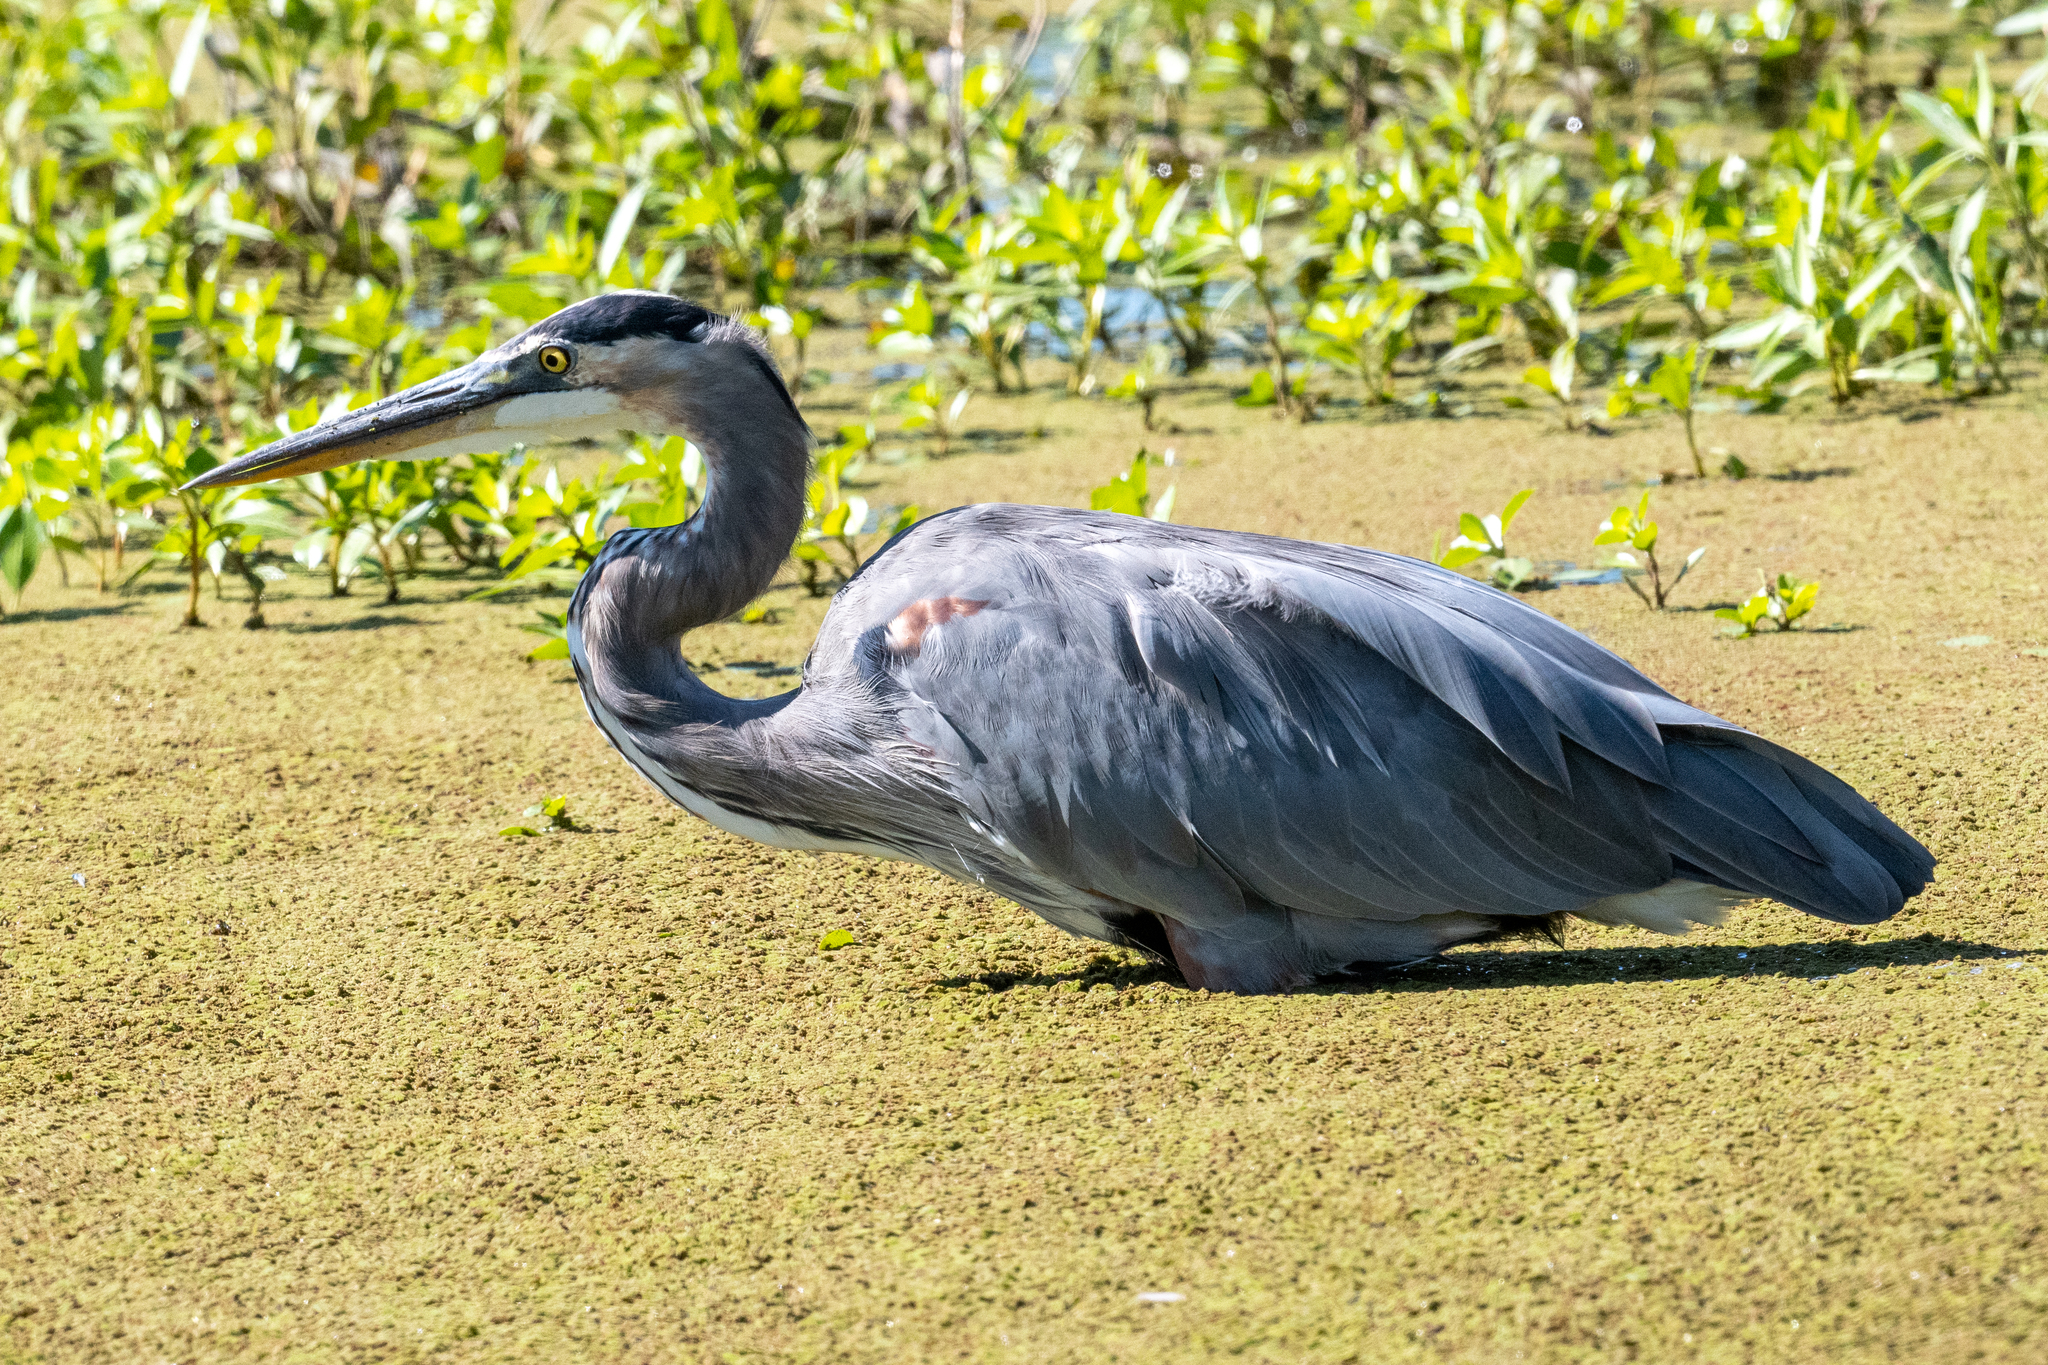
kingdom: Animalia
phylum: Chordata
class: Aves
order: Pelecaniformes
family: Ardeidae
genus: Ardea
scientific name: Ardea herodias
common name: Great blue heron
